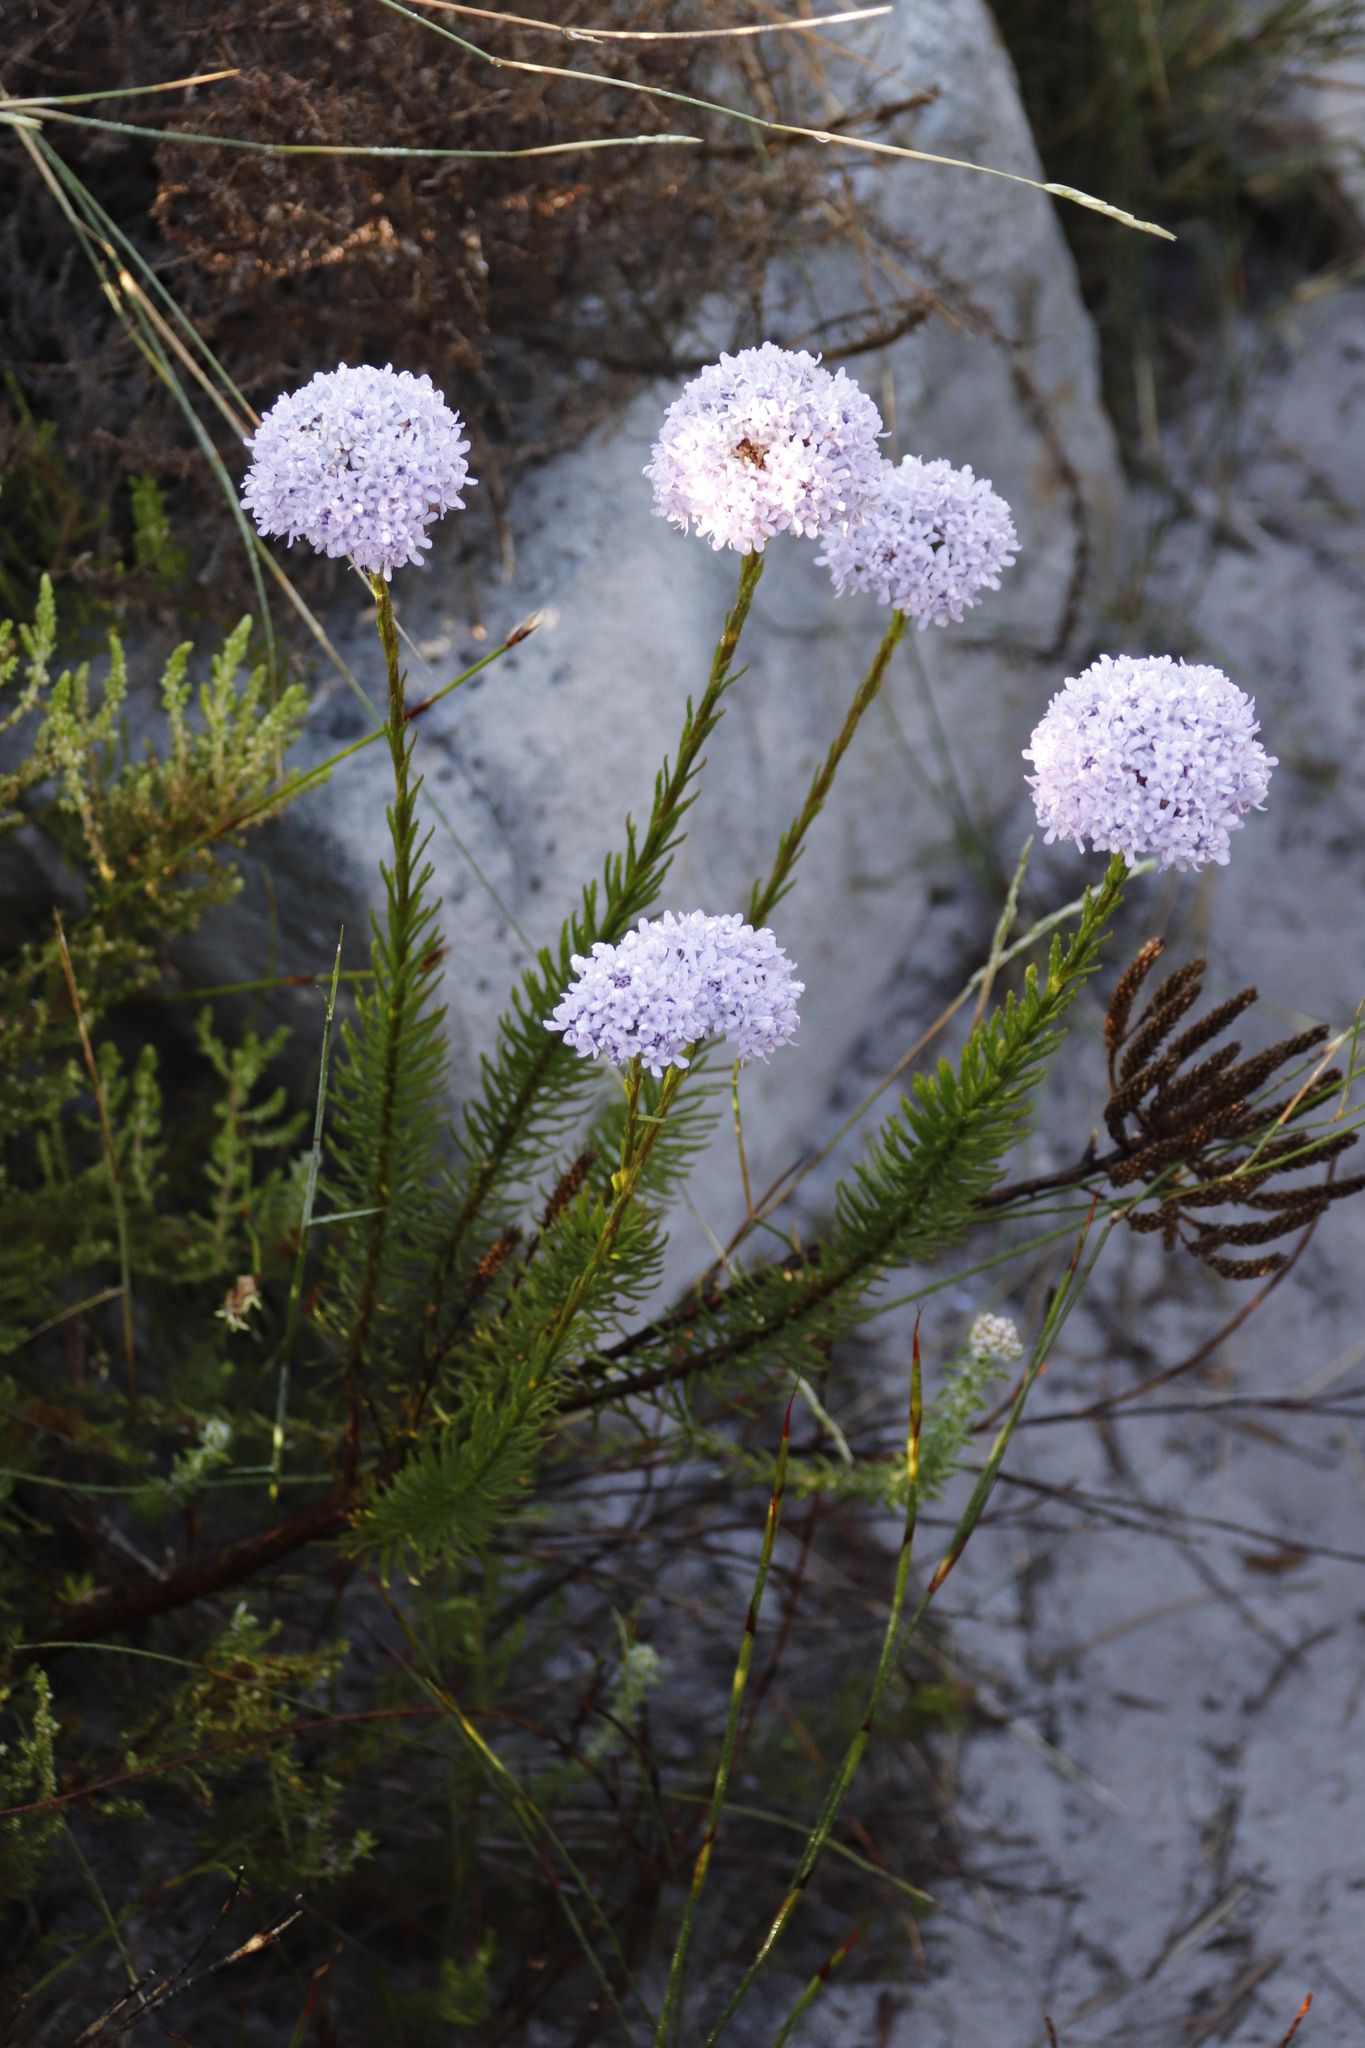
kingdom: Plantae
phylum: Tracheophyta
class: Magnoliopsida
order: Lamiales
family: Scrophulariaceae
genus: Pseudoselago
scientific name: Pseudoselago spuria
